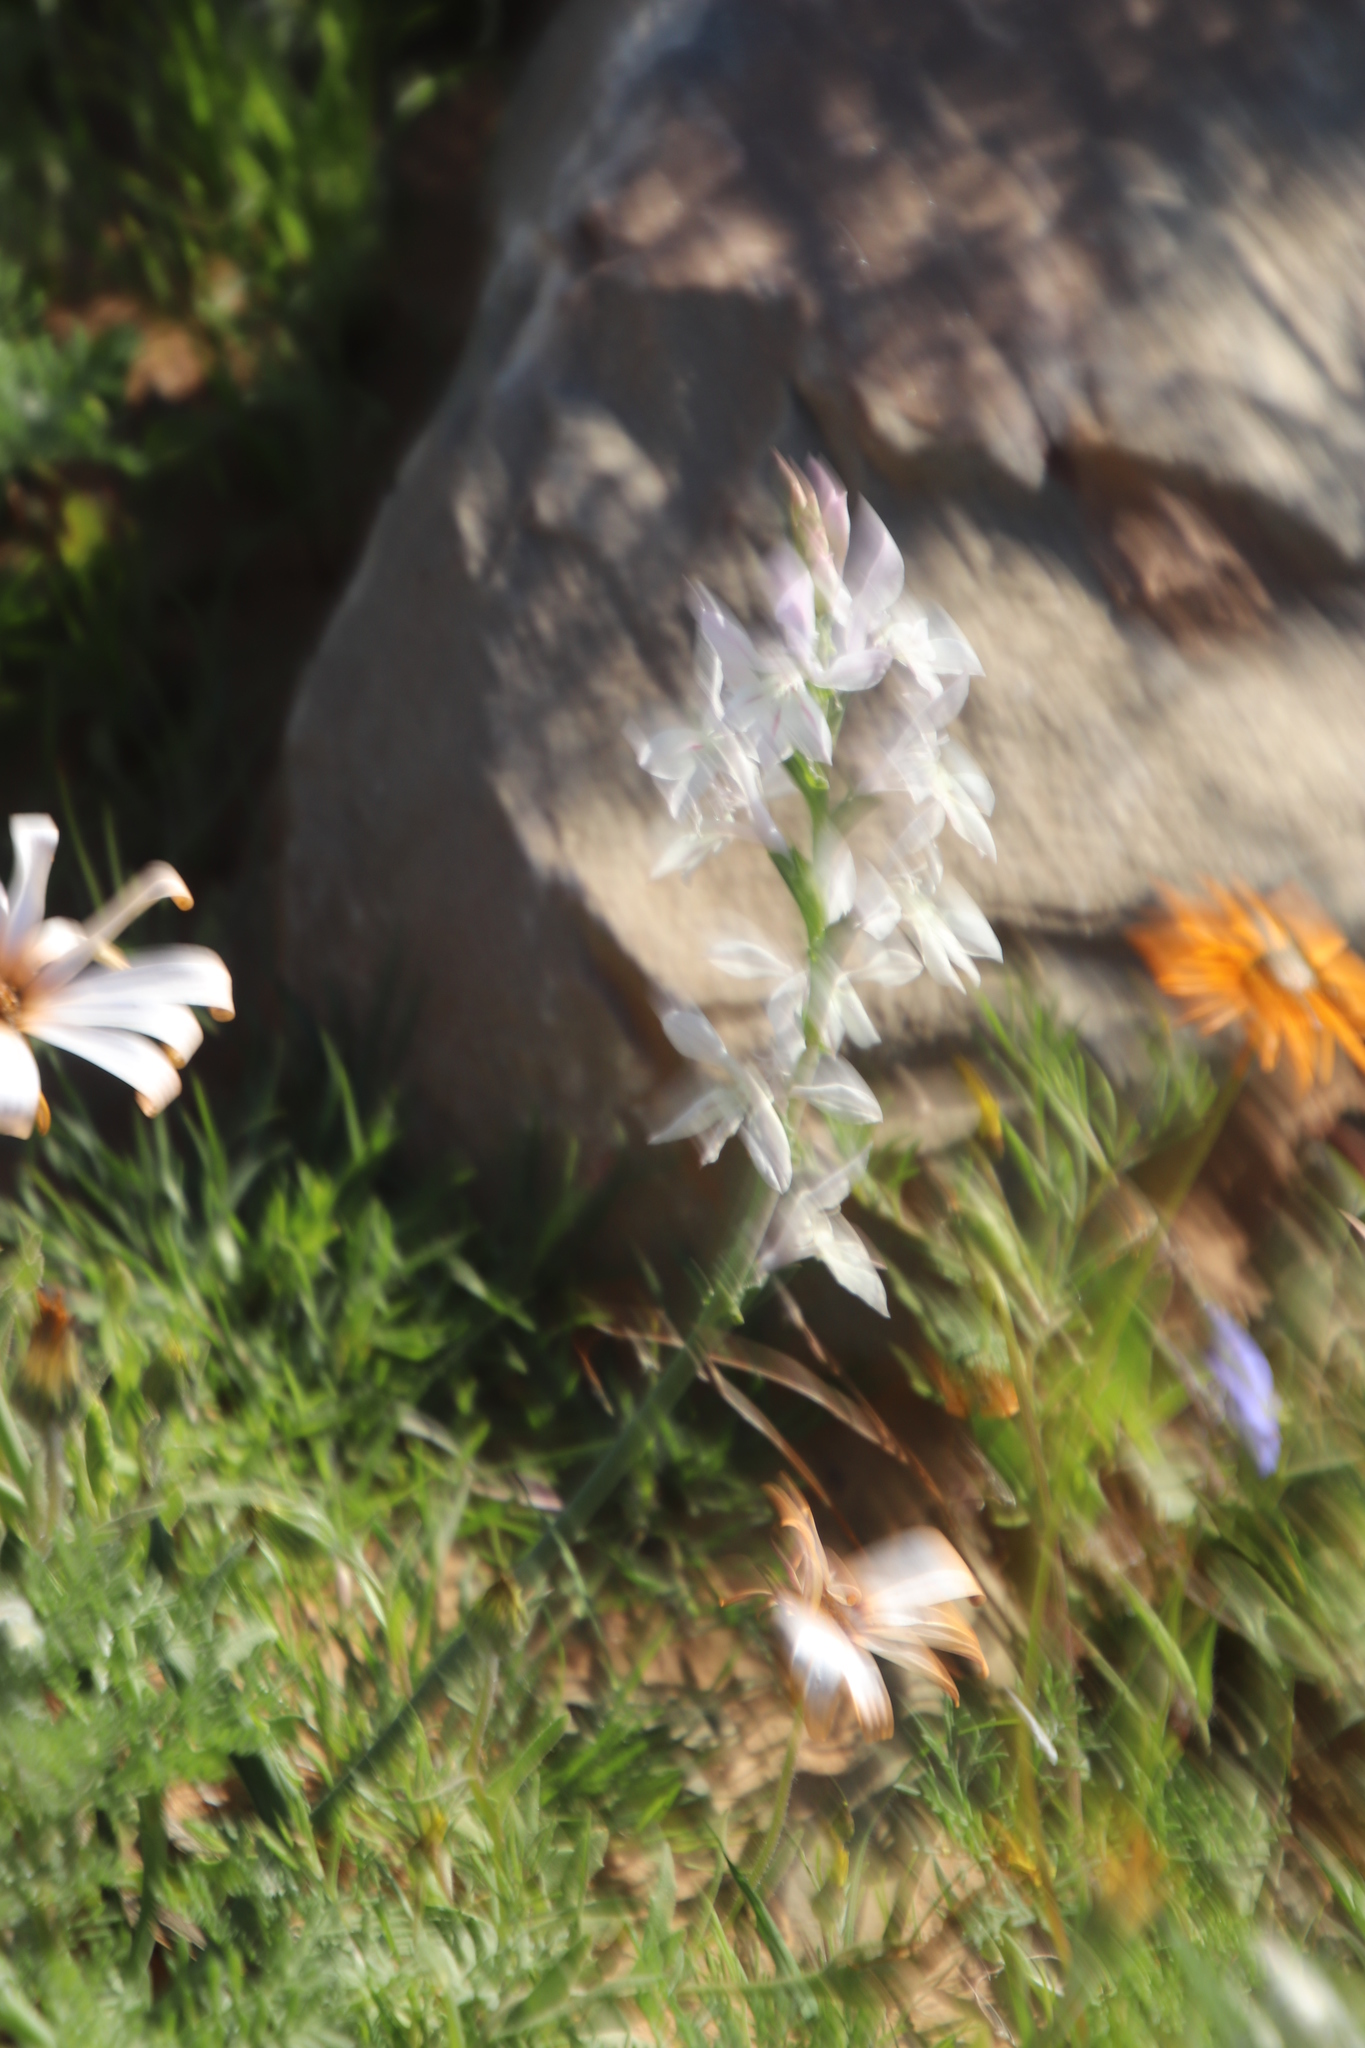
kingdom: Plantae
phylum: Tracheophyta
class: Liliopsida
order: Asparagales
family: Iridaceae
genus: Lapeirousia
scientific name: Lapeirousia divaricata
